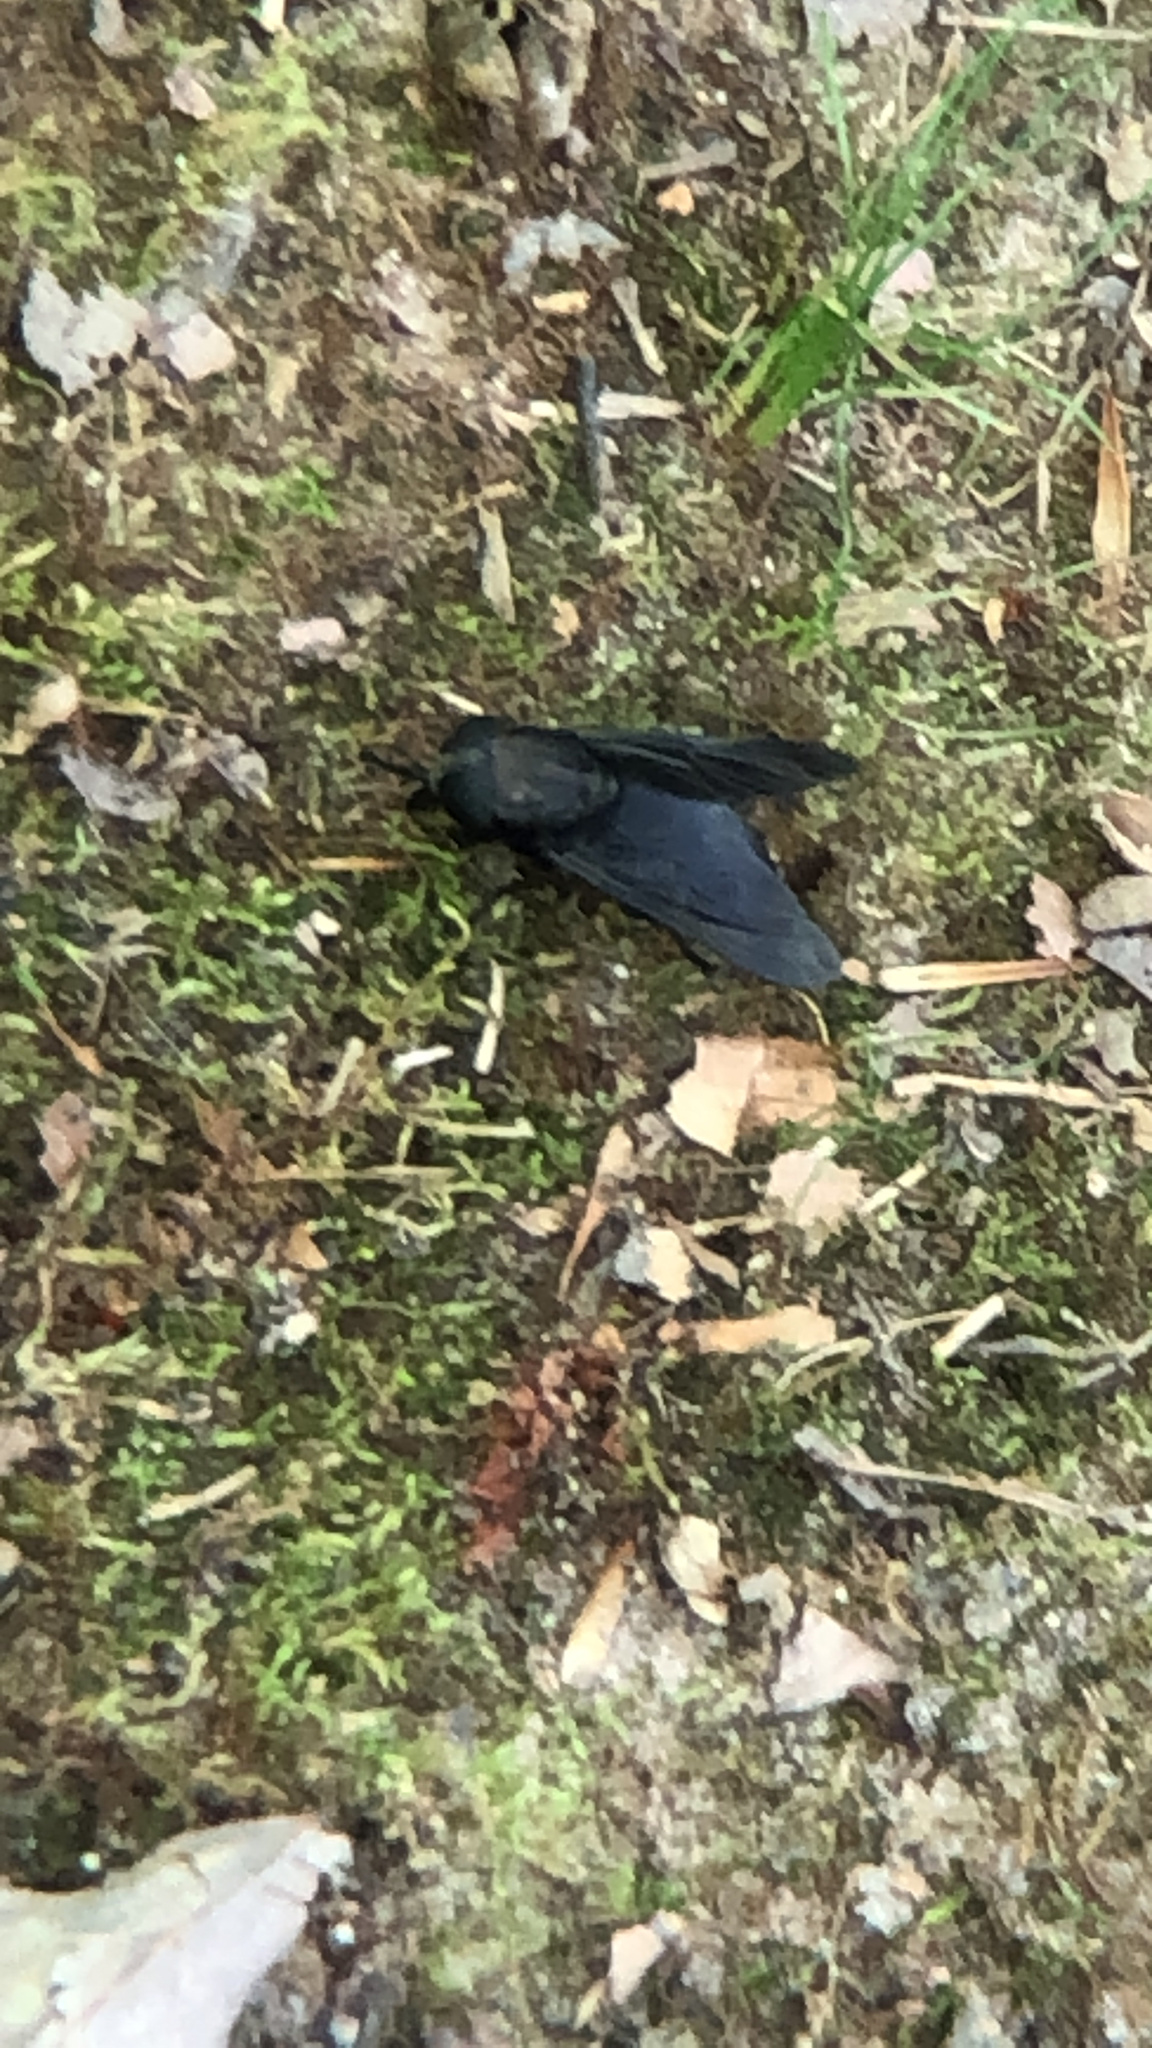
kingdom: Animalia
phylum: Arthropoda
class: Insecta
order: Diptera
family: Tabanidae
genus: Tabanus
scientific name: Tabanus atratus
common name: Black horse fly
